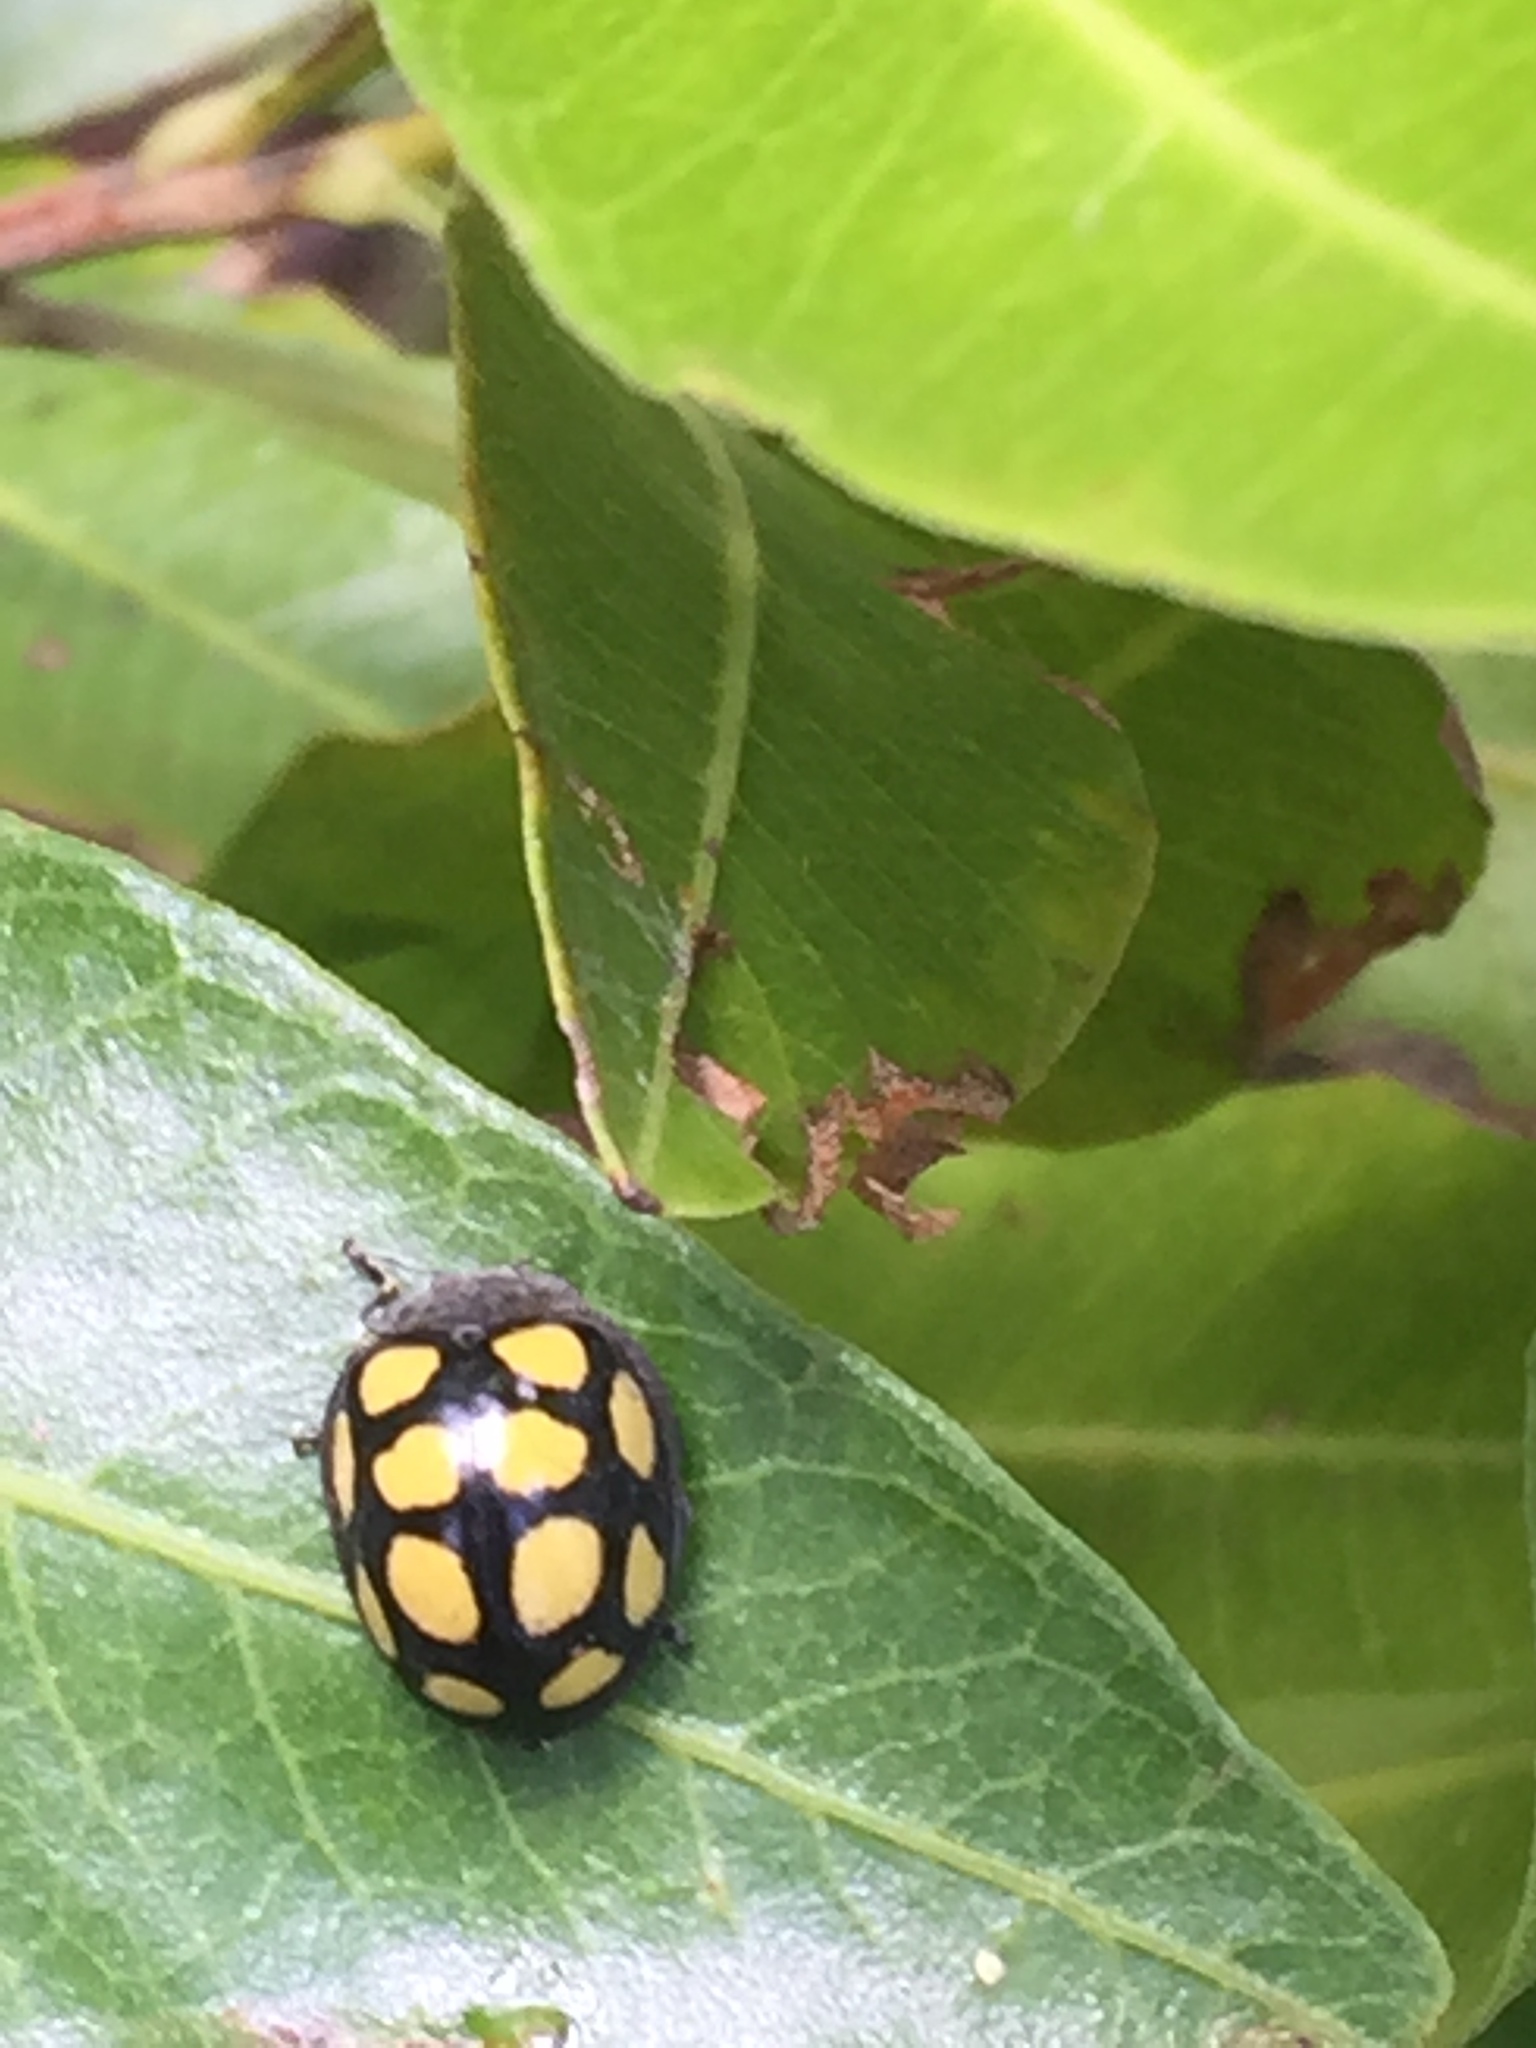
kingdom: Animalia
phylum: Arthropoda
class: Insecta
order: Coleoptera
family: Coccinellidae
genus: Epilachna
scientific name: Epilachna
